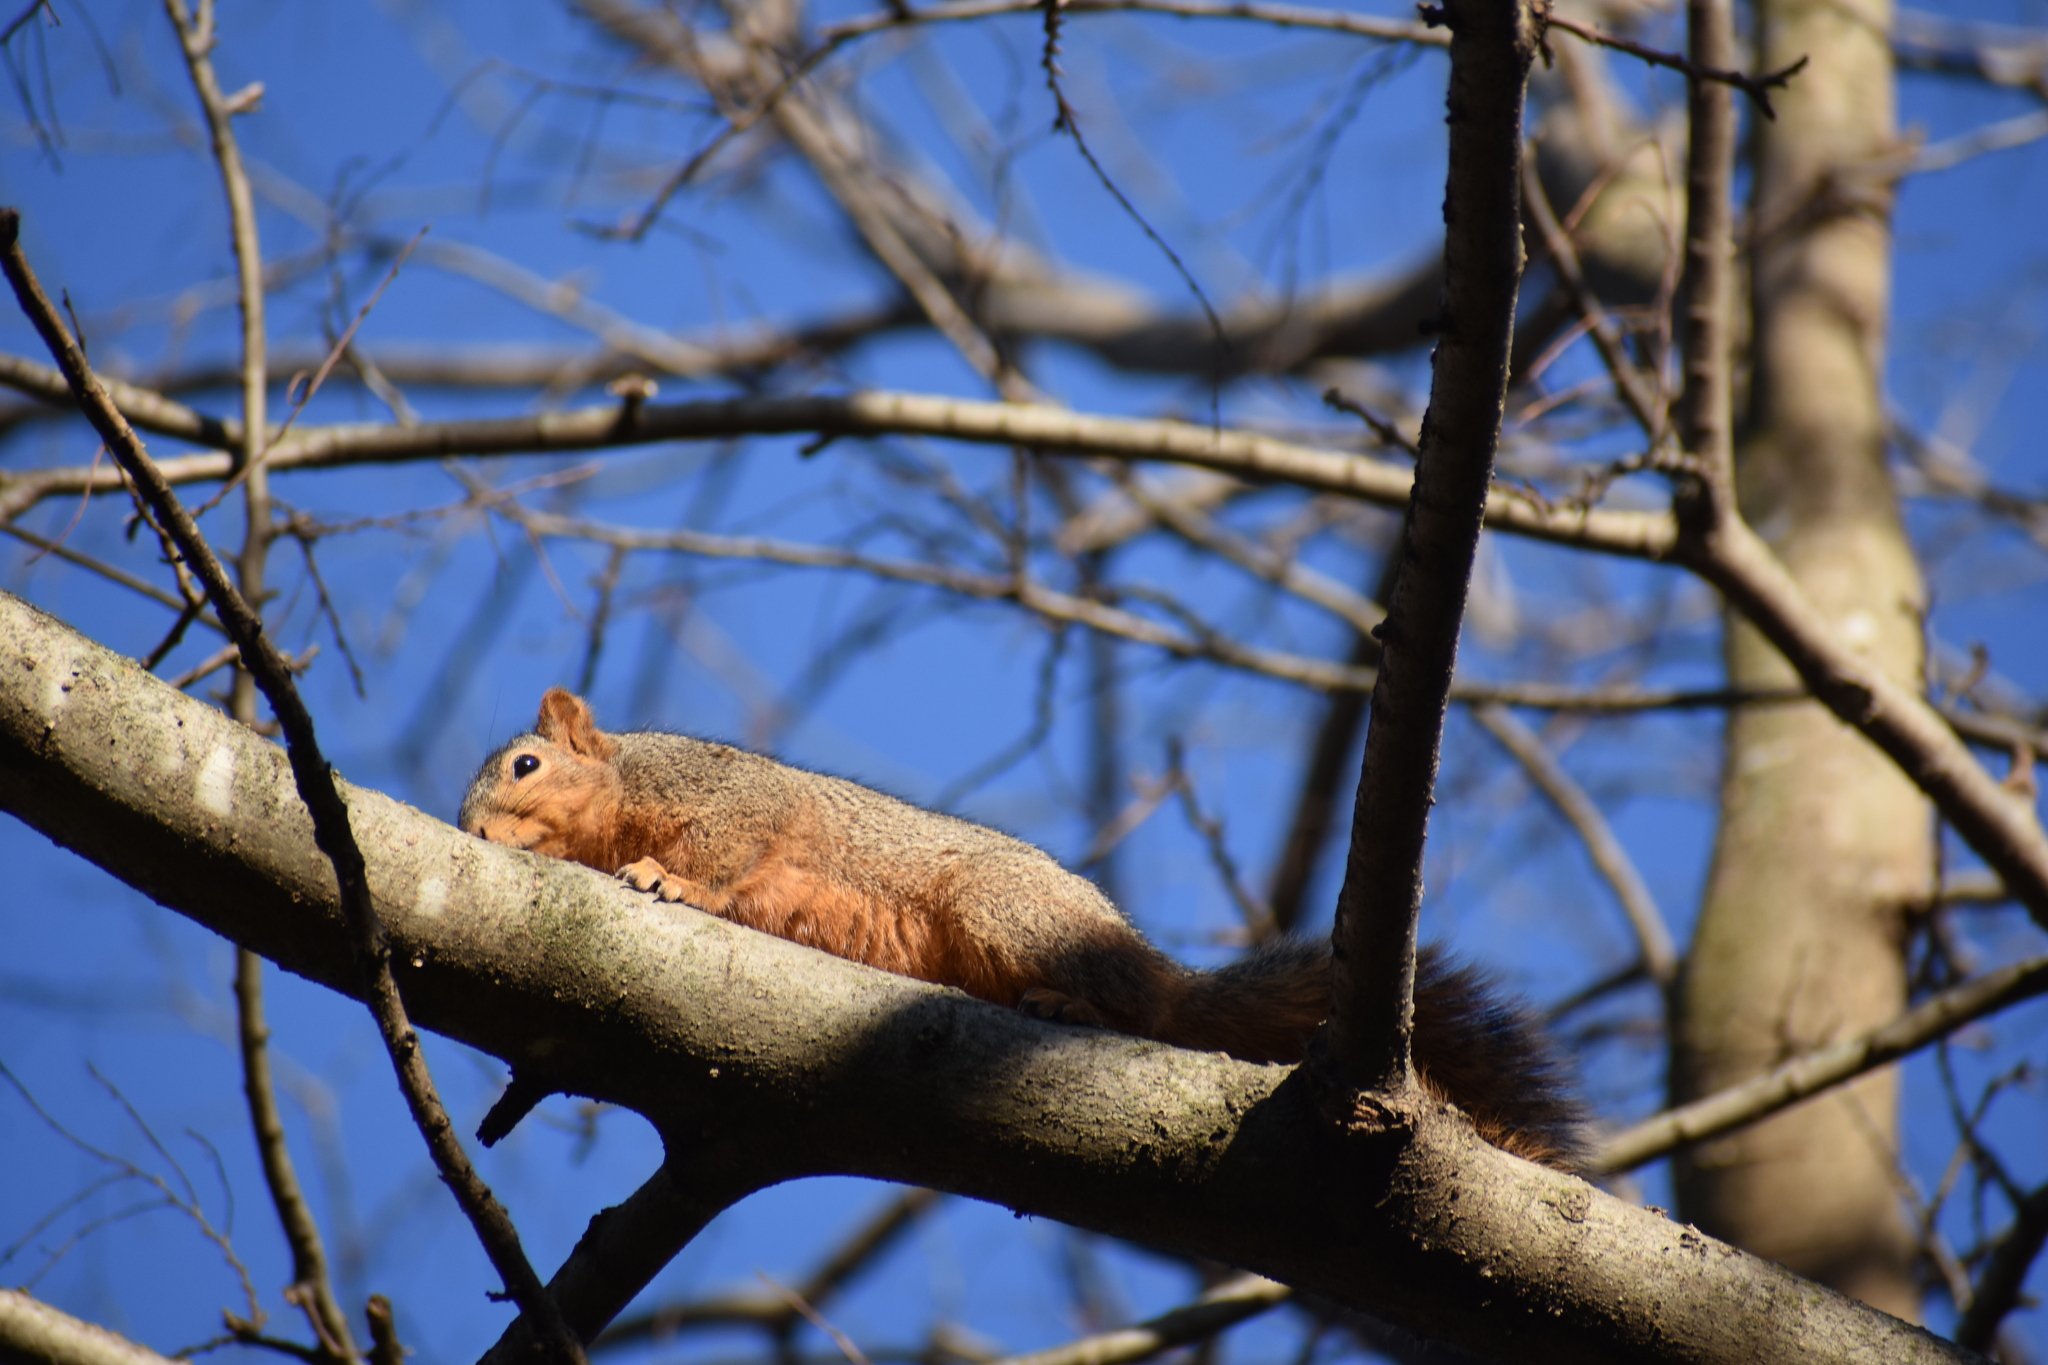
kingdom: Animalia
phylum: Chordata
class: Mammalia
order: Rodentia
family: Sciuridae
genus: Sciurus
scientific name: Sciurus niger
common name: Fox squirrel
